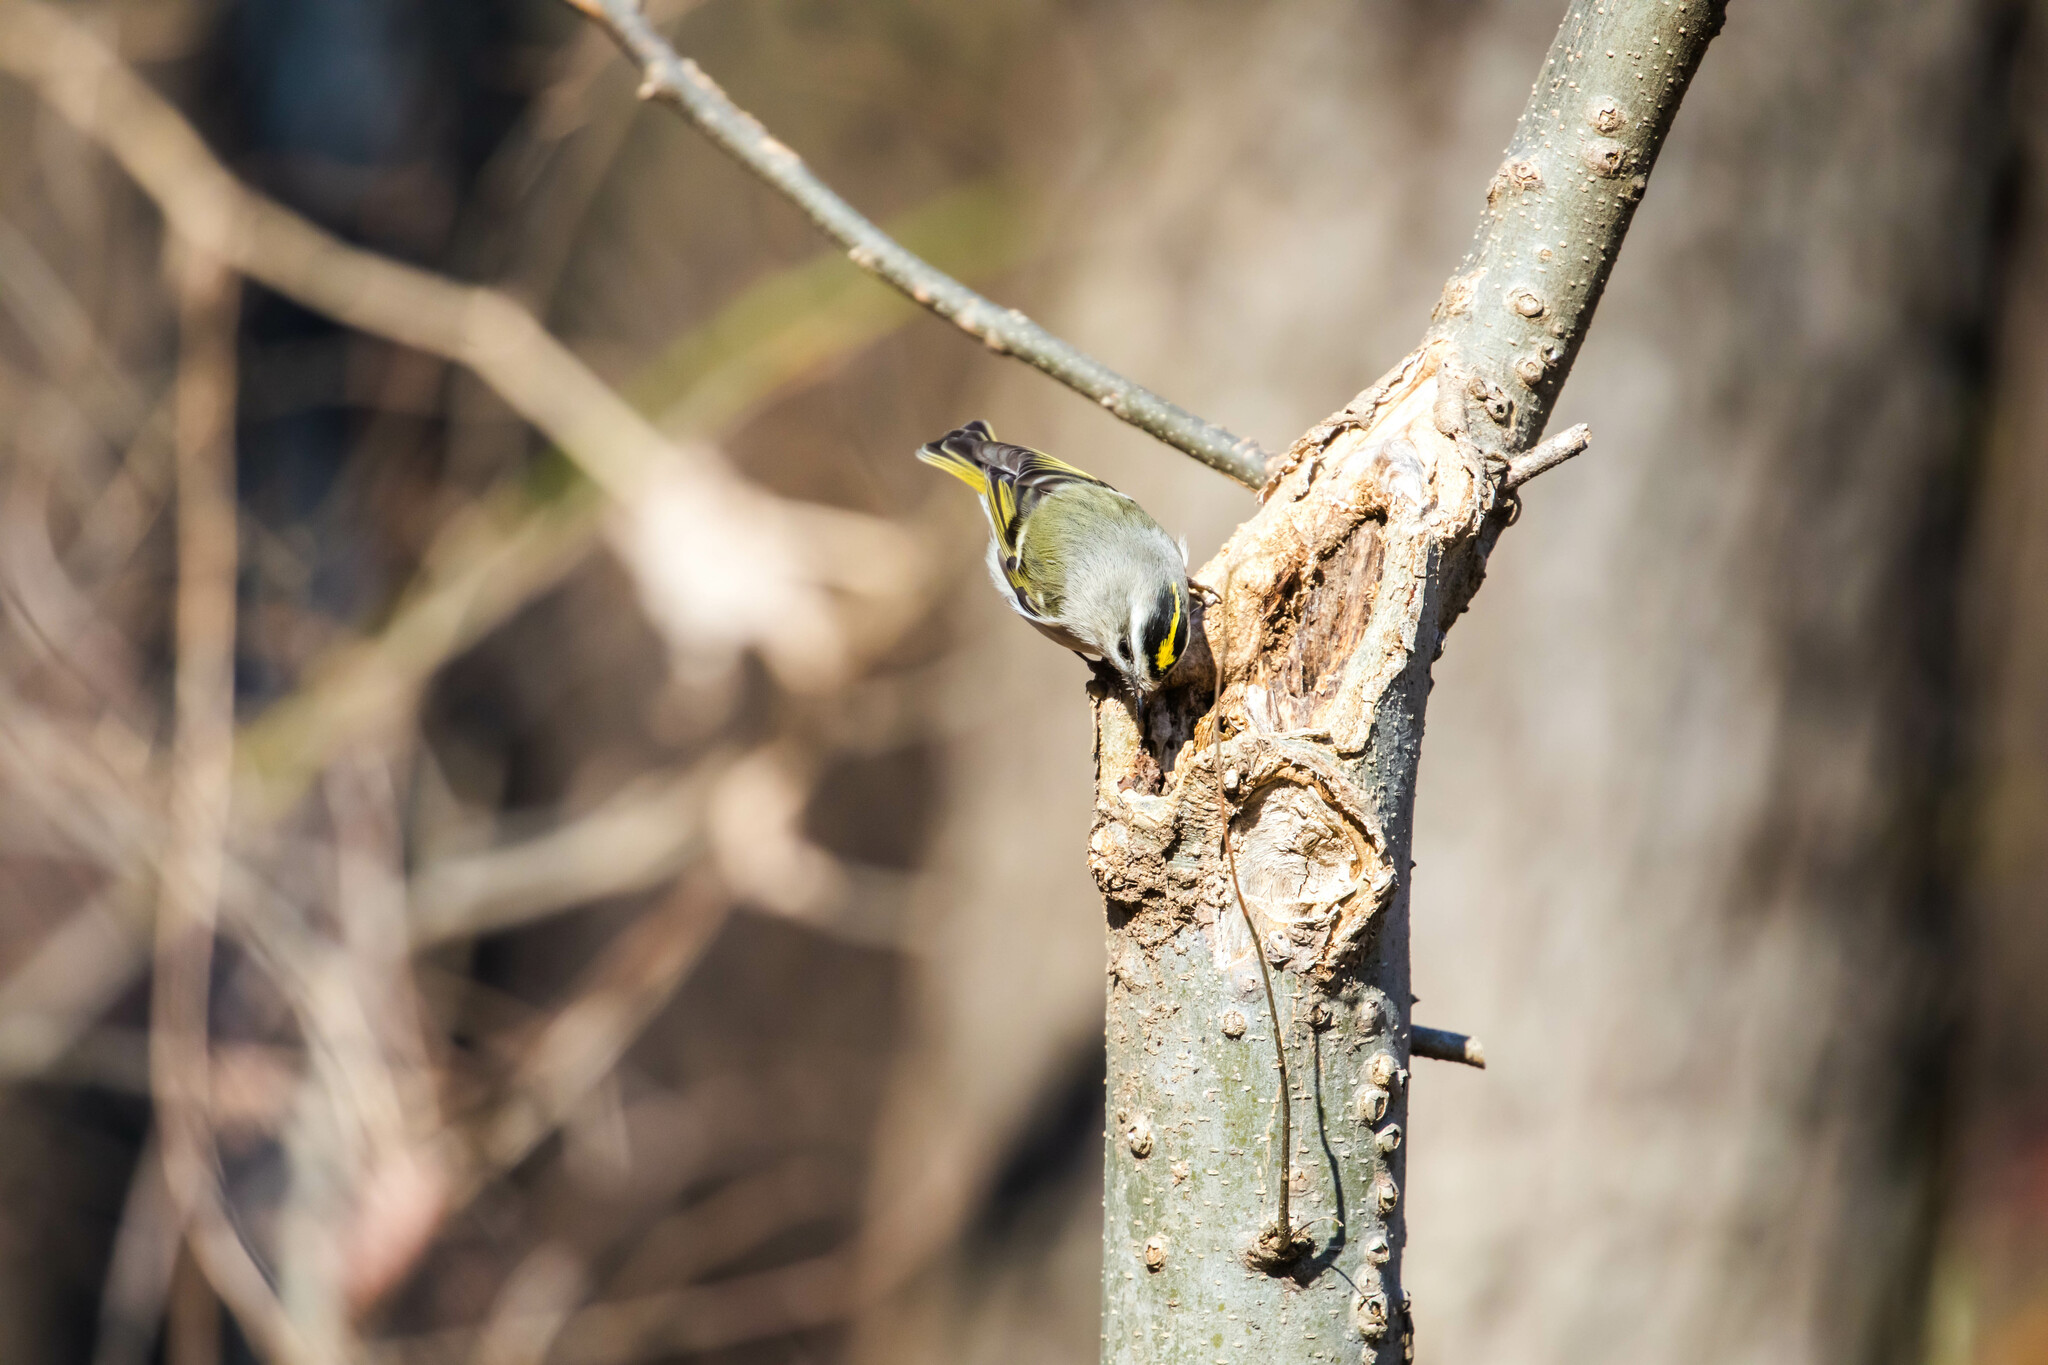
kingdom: Animalia
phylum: Chordata
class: Aves
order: Passeriformes
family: Regulidae
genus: Regulus
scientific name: Regulus satrapa
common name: Golden-crowned kinglet
